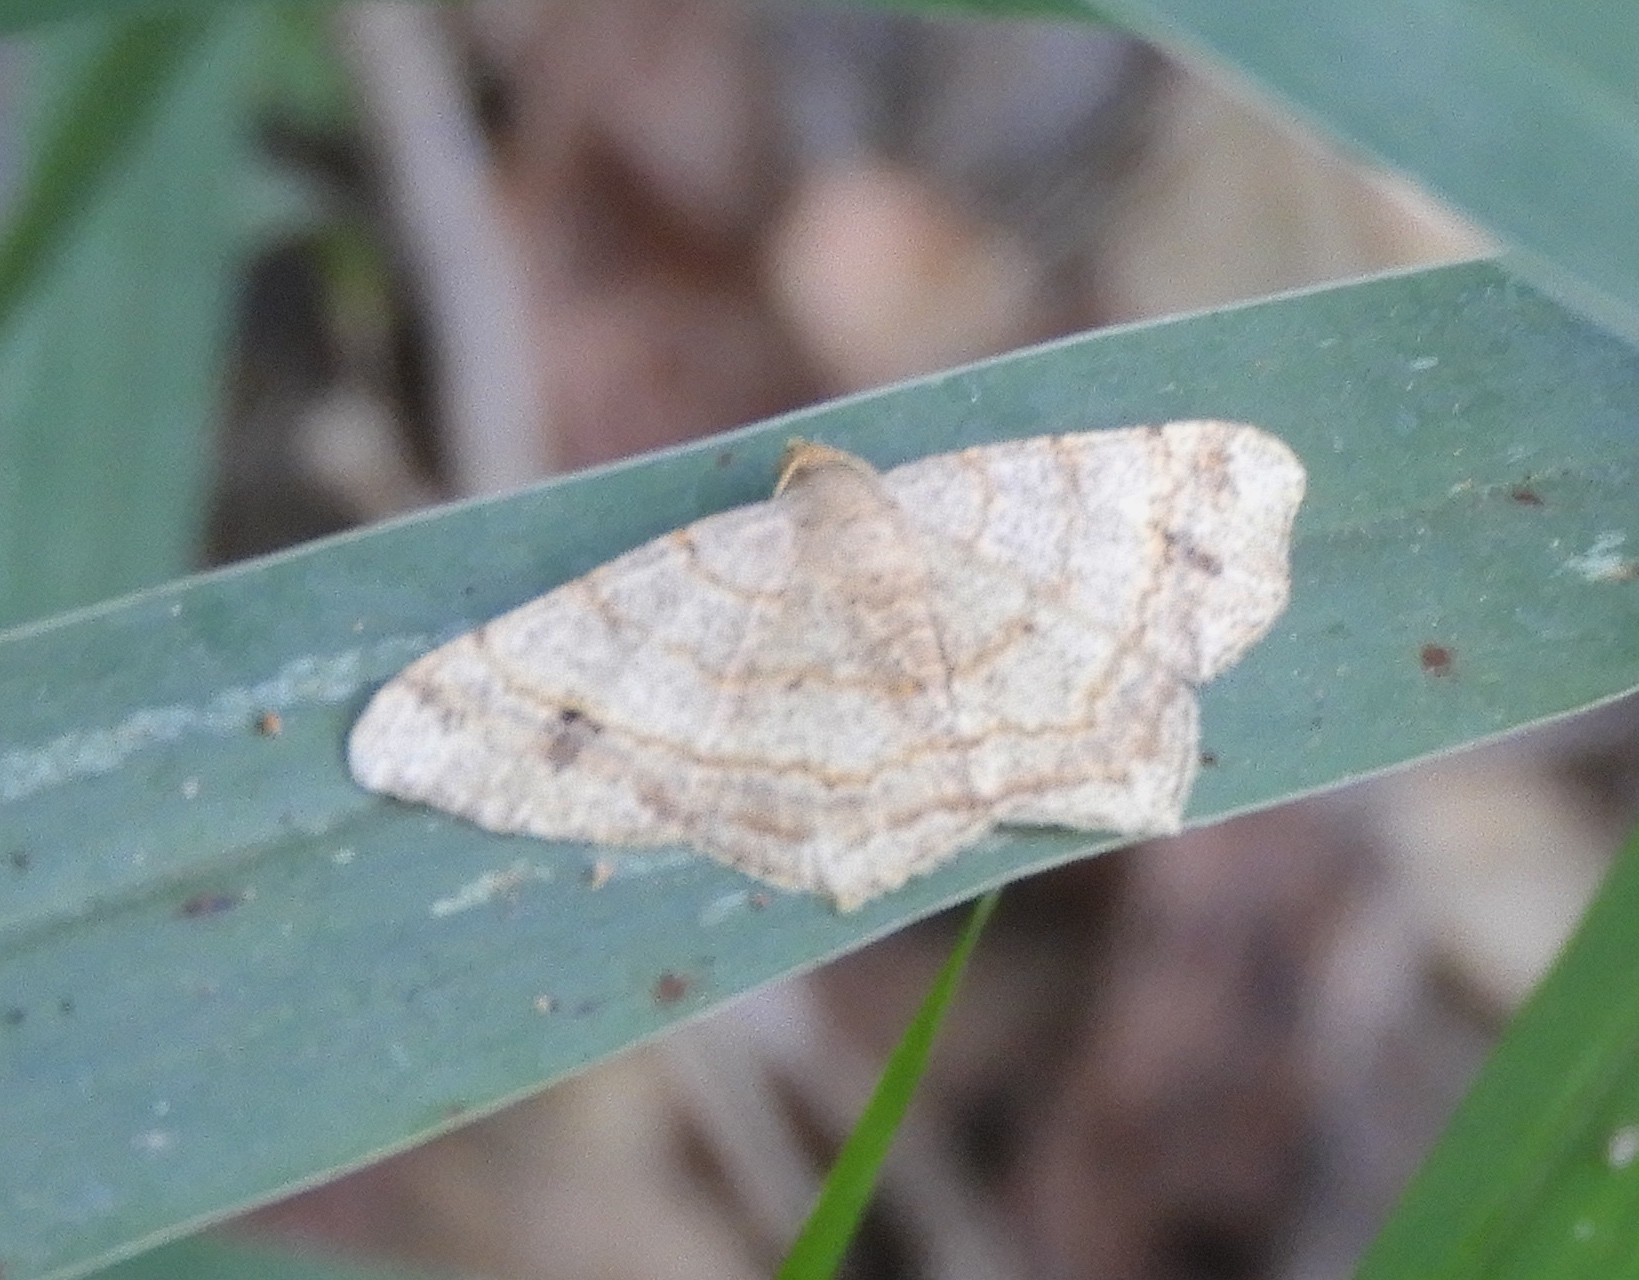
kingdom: Animalia
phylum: Arthropoda
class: Insecta
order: Lepidoptera
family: Geometridae
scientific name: Geometridae
